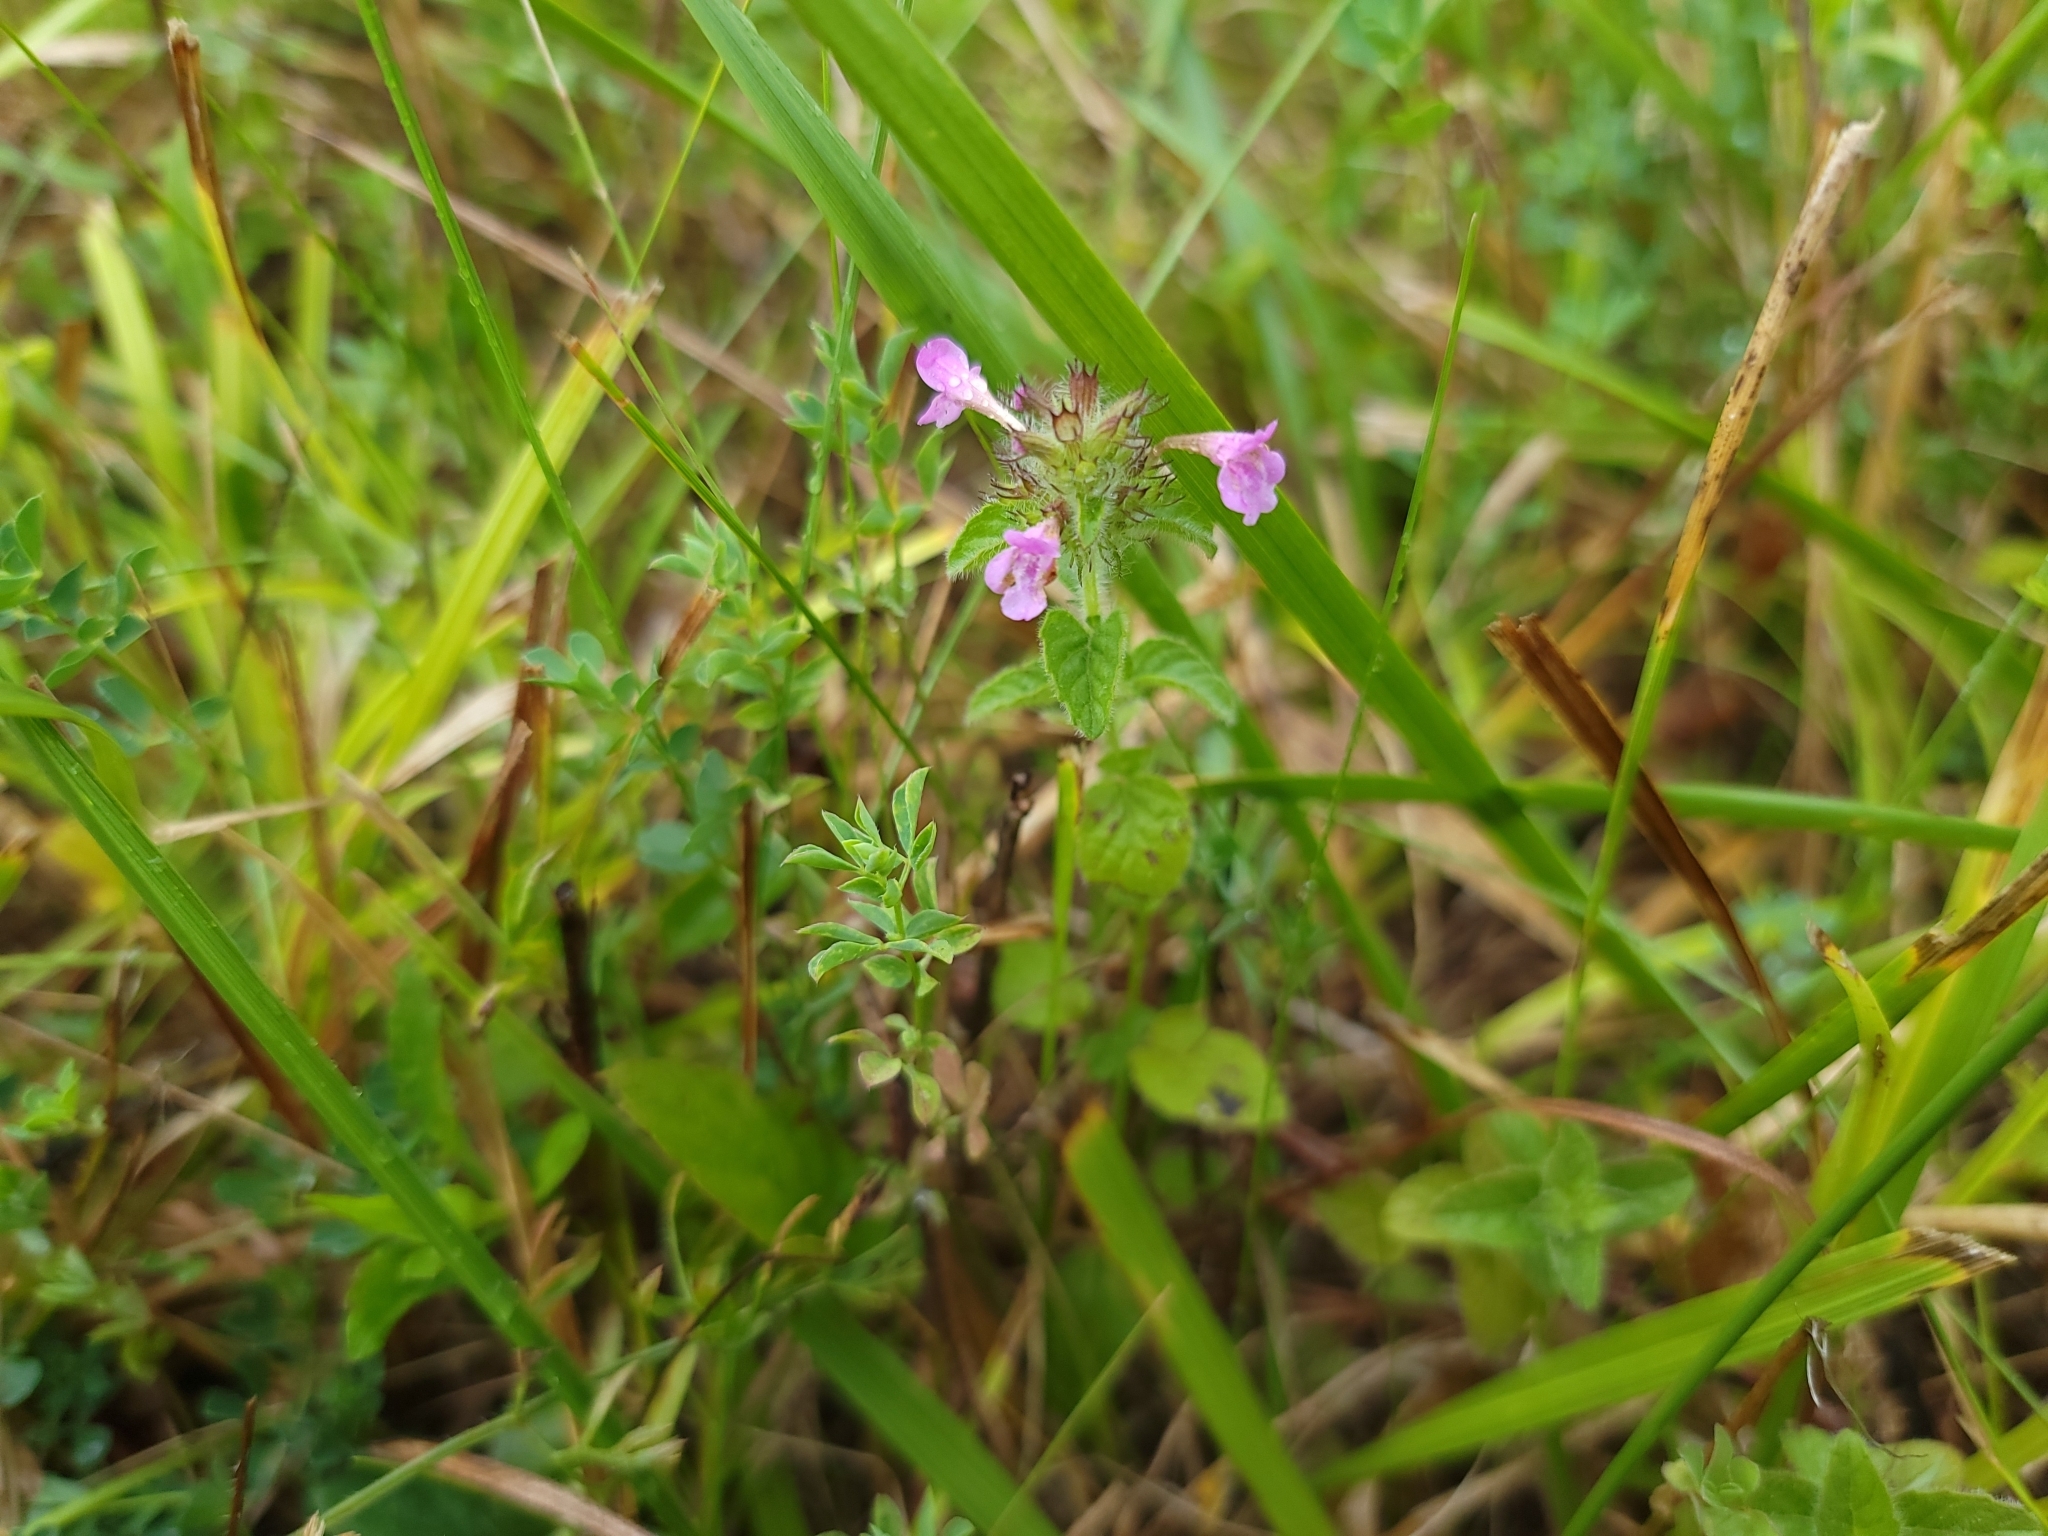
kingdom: Plantae
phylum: Tracheophyta
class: Magnoliopsida
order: Lamiales
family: Lamiaceae
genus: Clinopodium
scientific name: Clinopodium vulgare
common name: Wild basil
